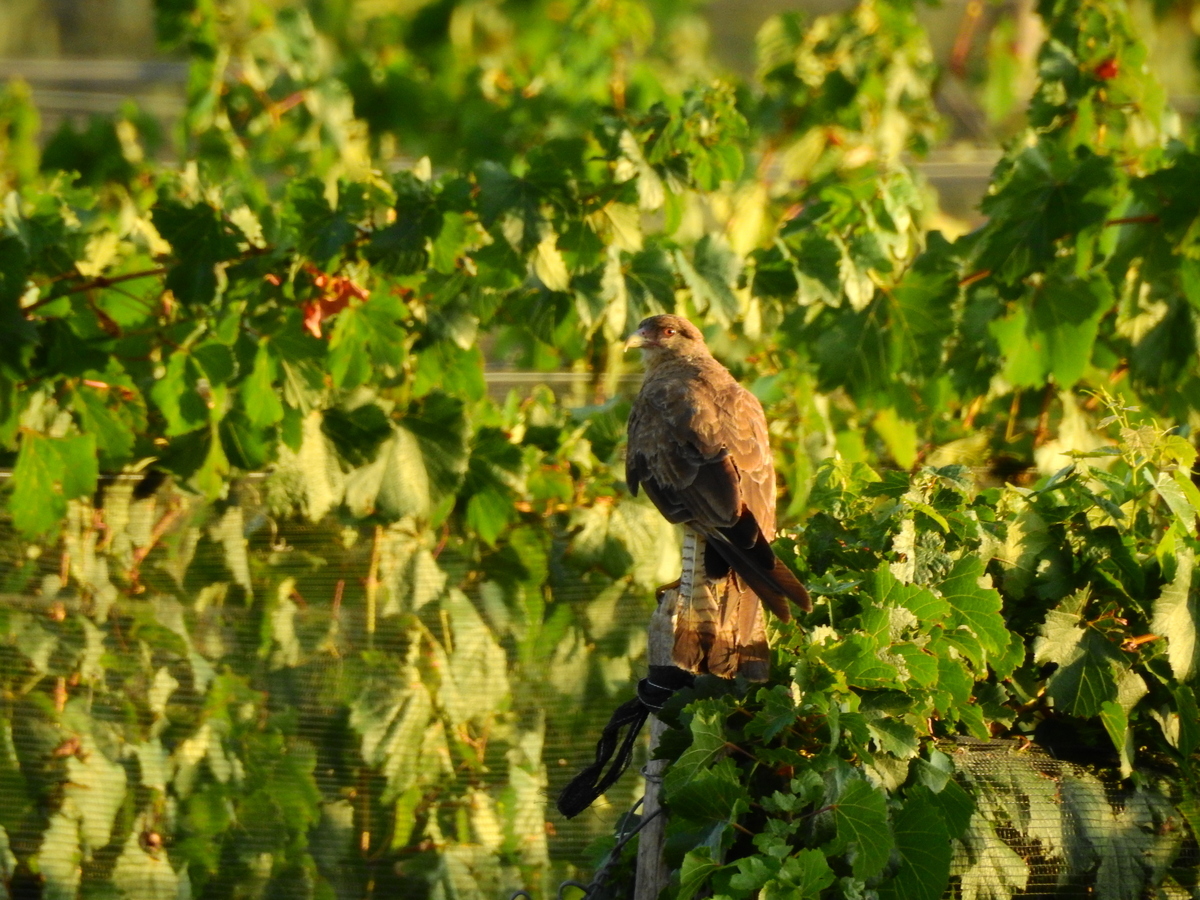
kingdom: Animalia
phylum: Chordata
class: Aves
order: Falconiformes
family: Falconidae
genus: Daptrius
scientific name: Daptrius
